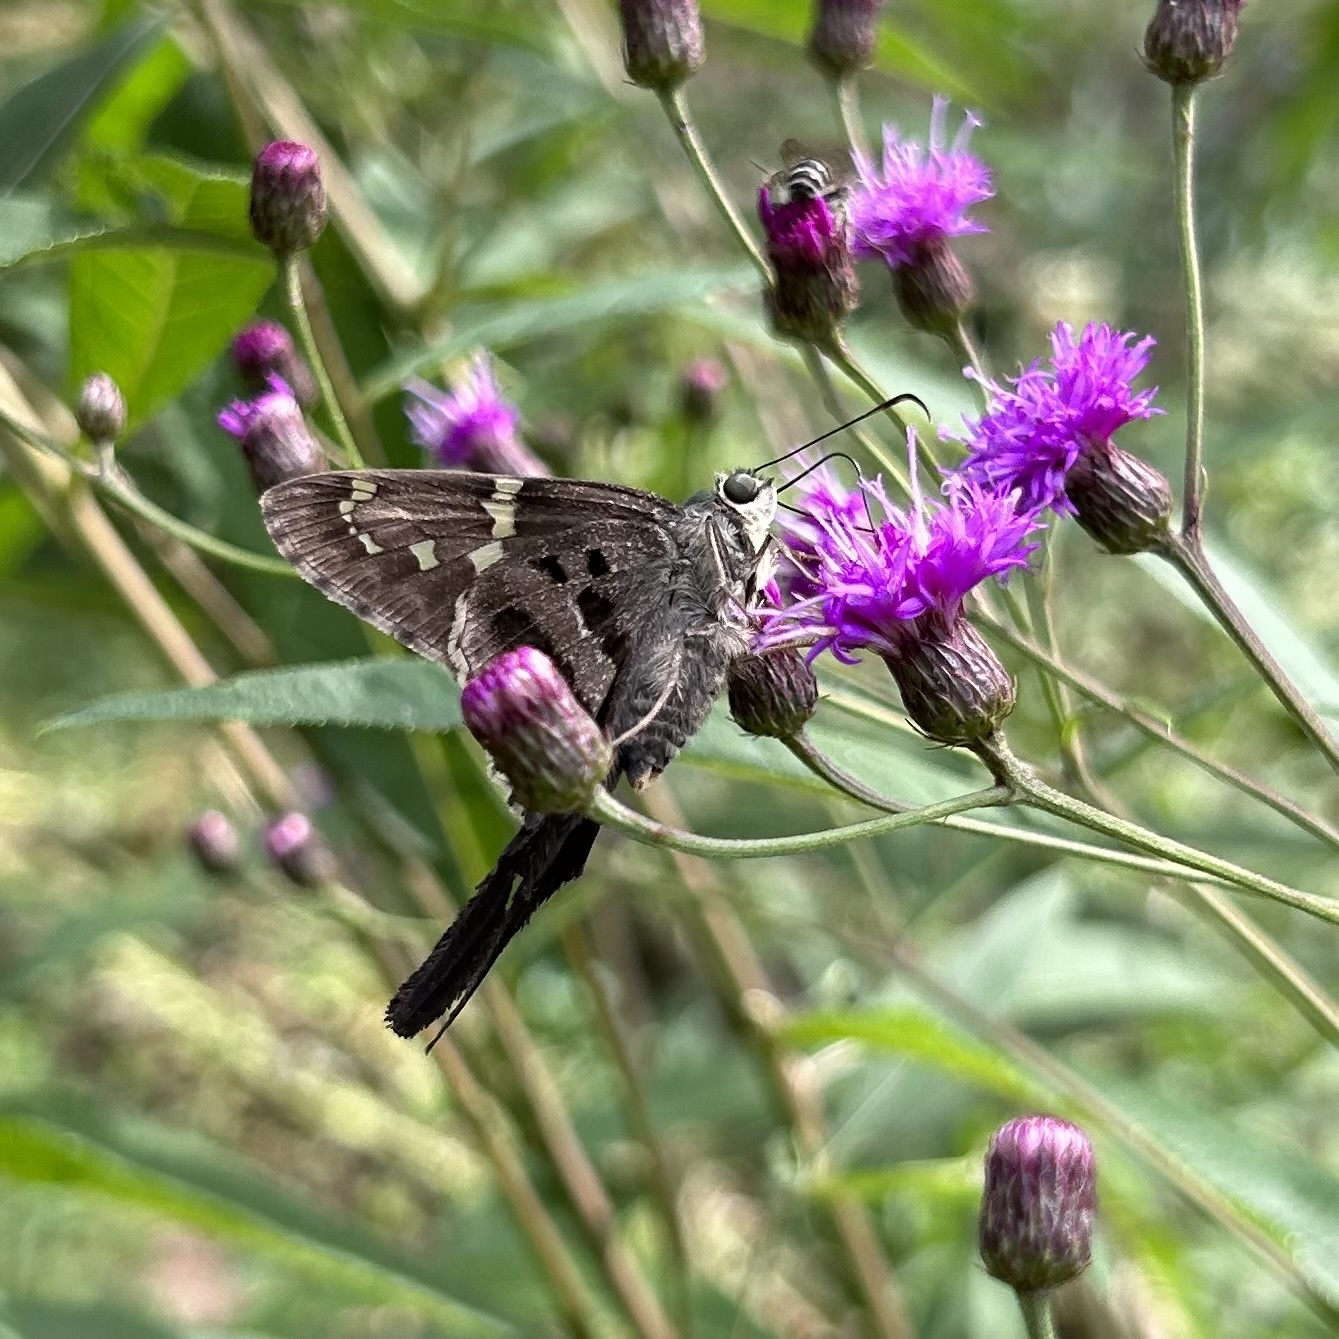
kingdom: Animalia
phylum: Arthropoda
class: Insecta
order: Lepidoptera
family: Hesperiidae
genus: Urbanus
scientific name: Urbanus proteus
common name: Long-tailed skipper
